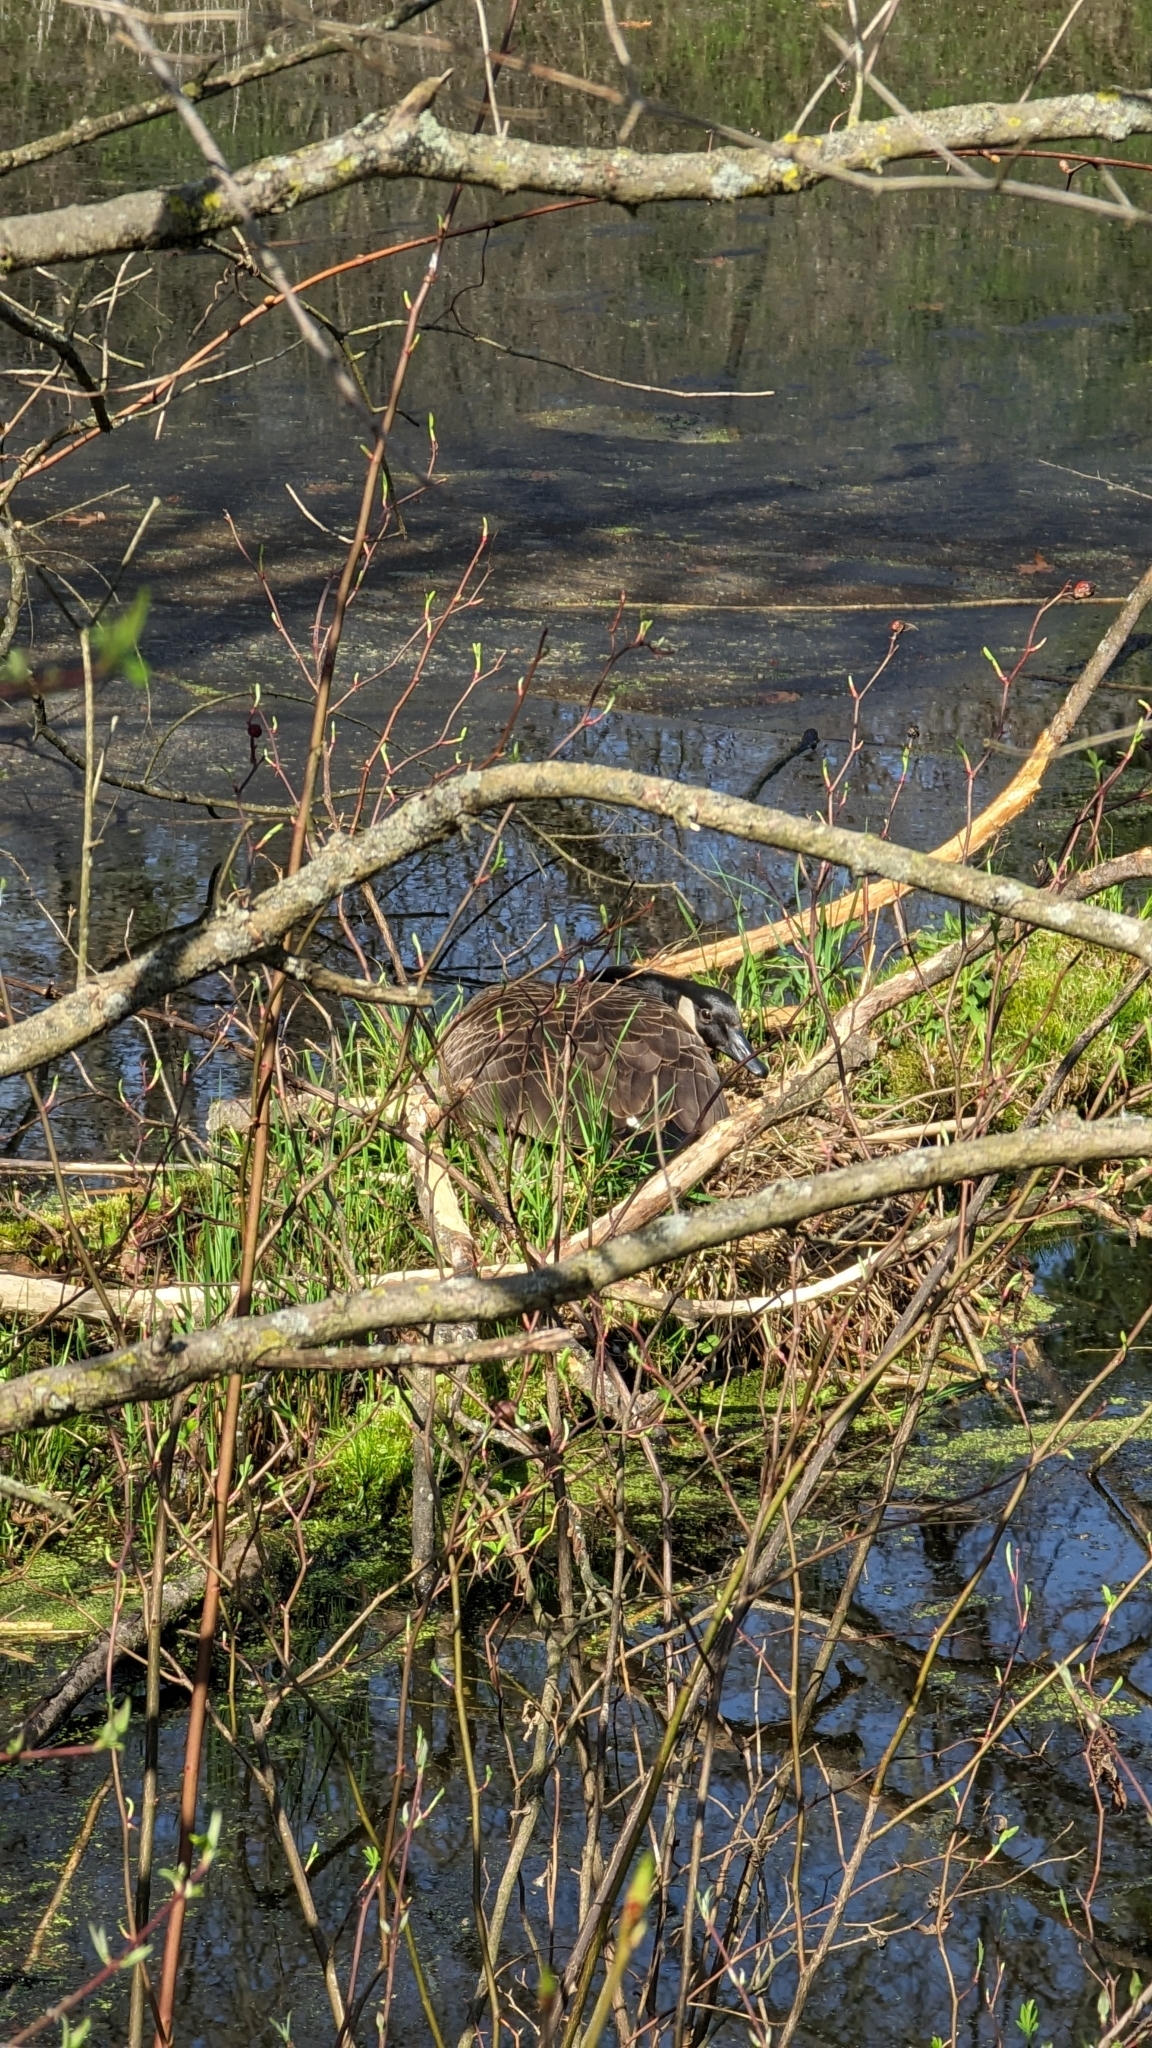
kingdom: Animalia
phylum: Chordata
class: Aves
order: Anseriformes
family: Anatidae
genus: Branta
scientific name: Branta canadensis
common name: Canada goose
